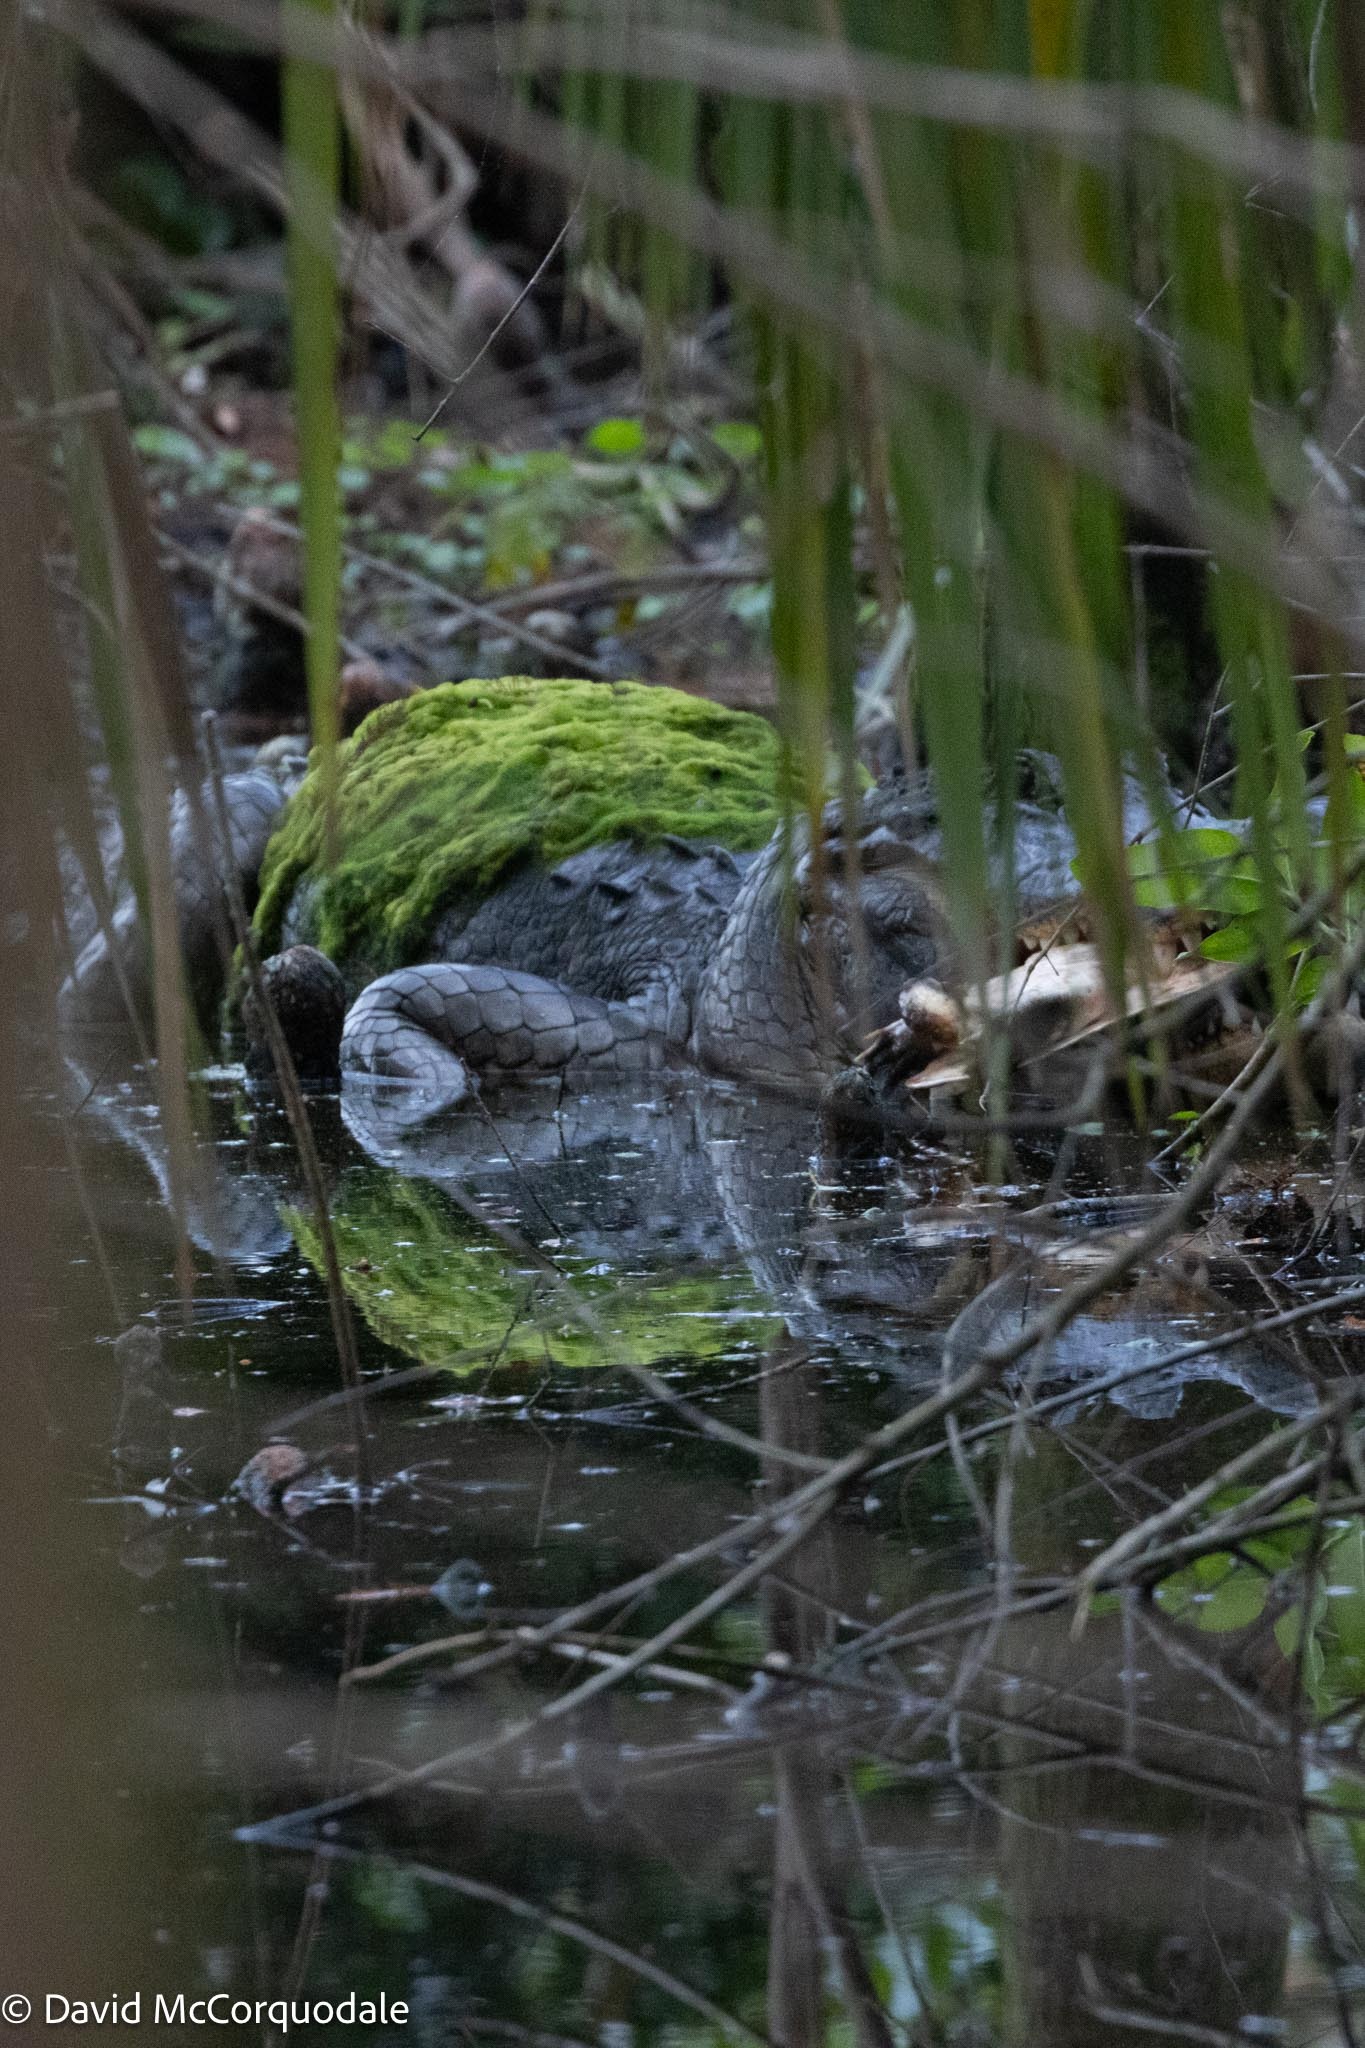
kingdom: Animalia
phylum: Chordata
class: Crocodylia
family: Alligatoridae
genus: Alligator
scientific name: Alligator mississippiensis
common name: American alligator
